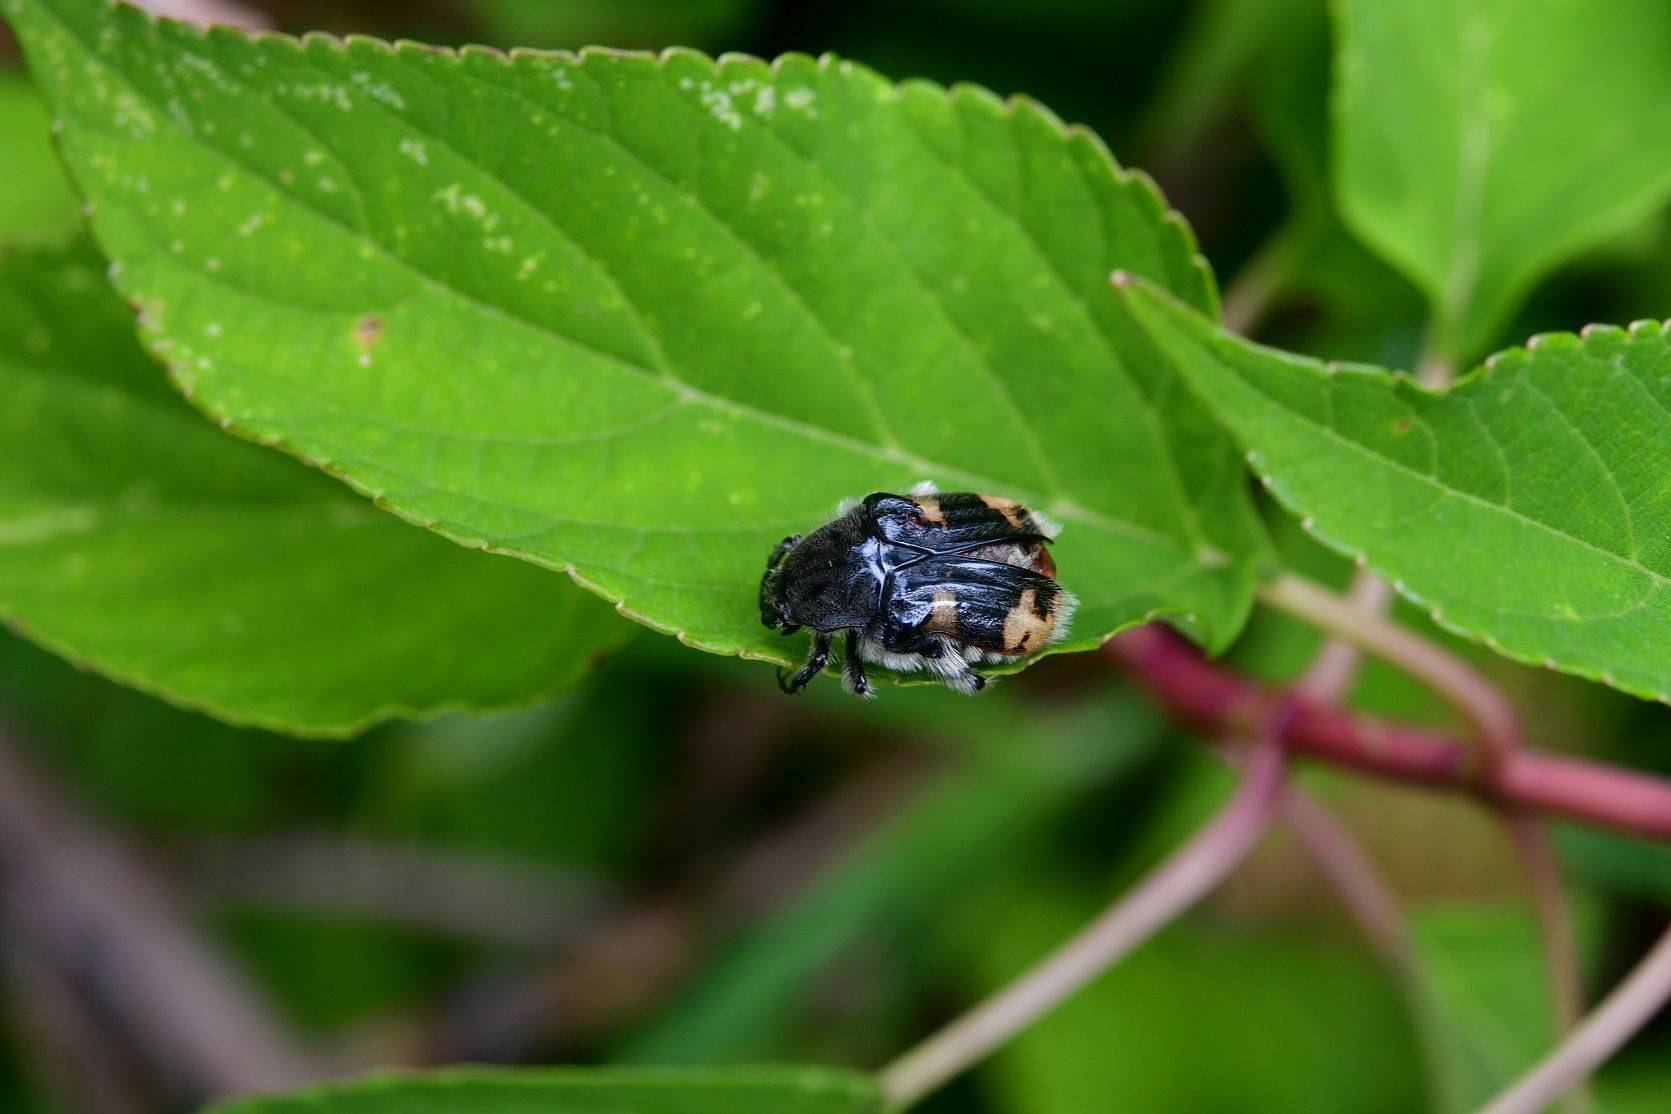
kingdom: Animalia
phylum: Arthropoda
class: Insecta
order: Coleoptera
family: Scarabaeidae
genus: Euphoria
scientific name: Euphoria basalis
